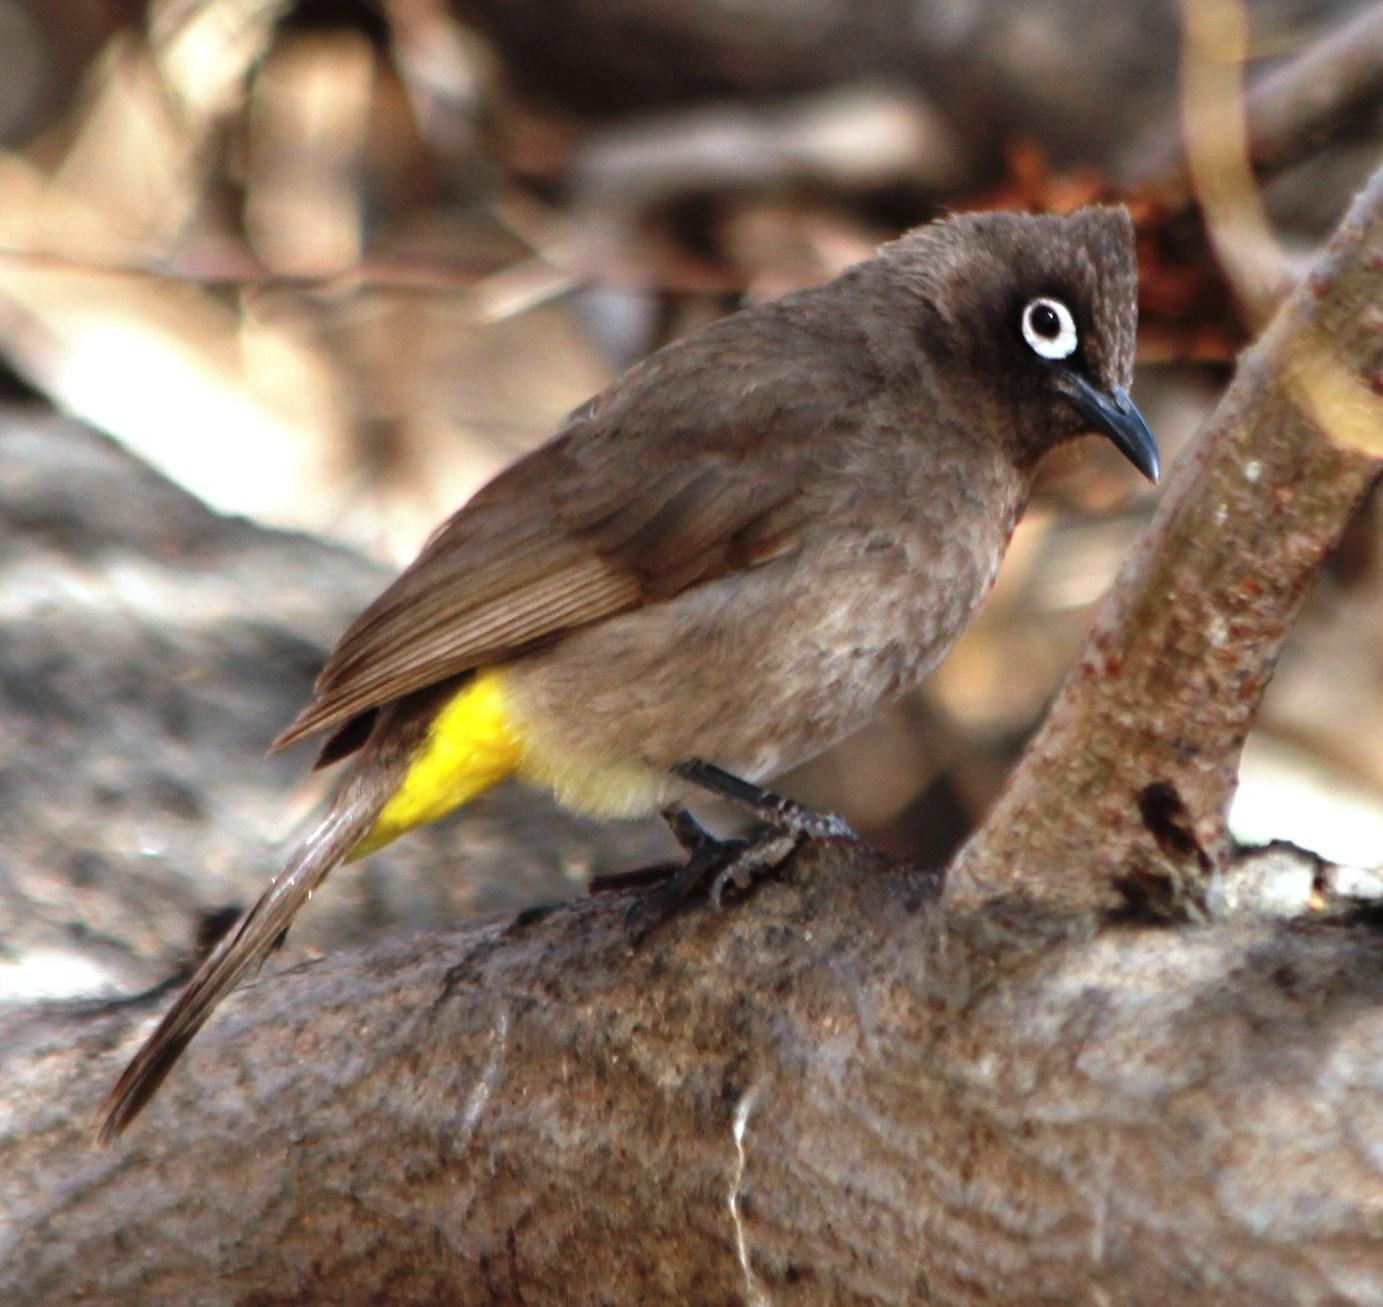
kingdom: Animalia
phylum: Chordata
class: Aves
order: Passeriformes
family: Pycnonotidae
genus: Pycnonotus
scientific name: Pycnonotus capensis
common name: Cape bulbul
